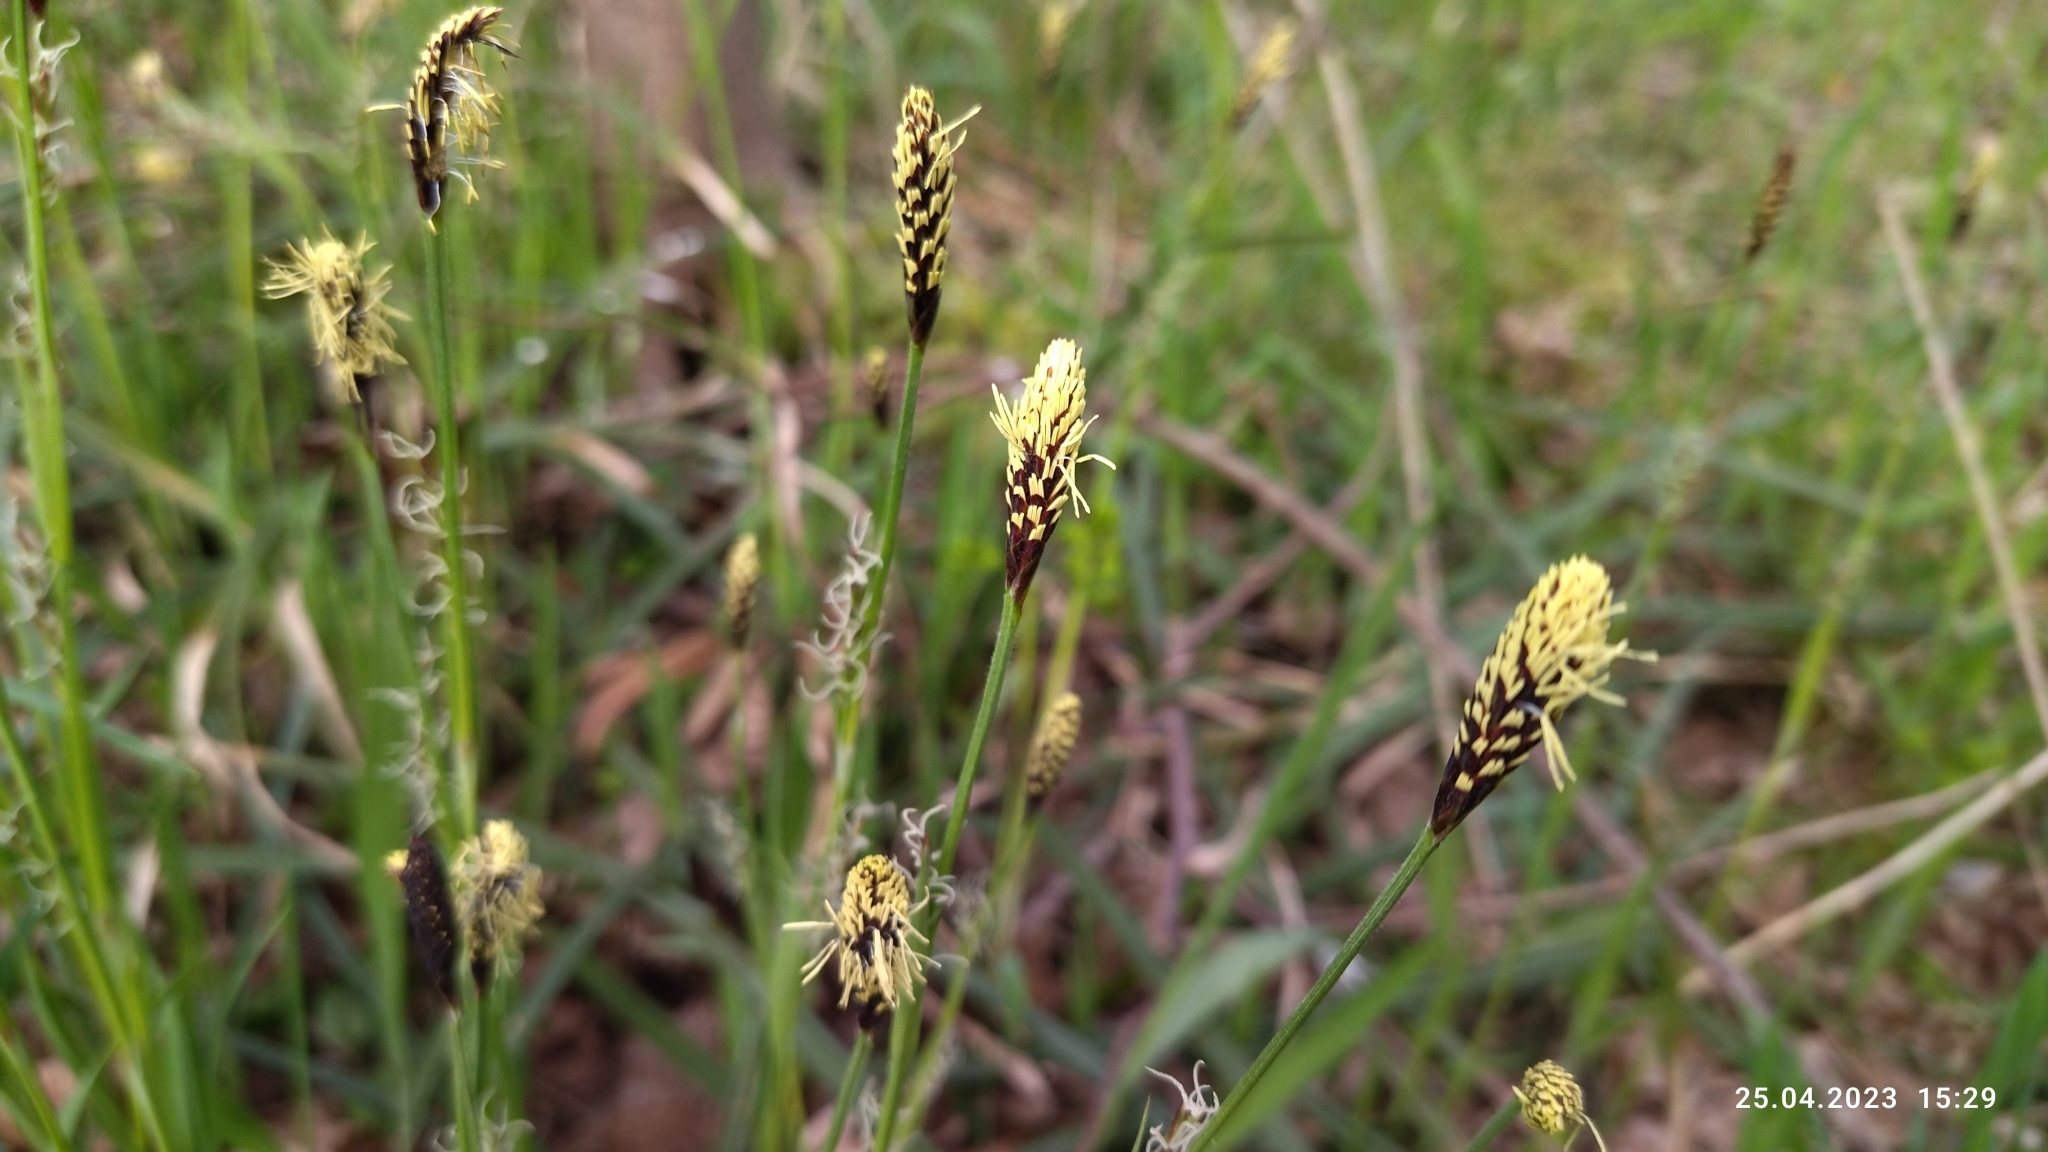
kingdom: Plantae
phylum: Tracheophyta
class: Liliopsida
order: Poales
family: Cyperaceae
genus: Carex
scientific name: Carex pilosa
